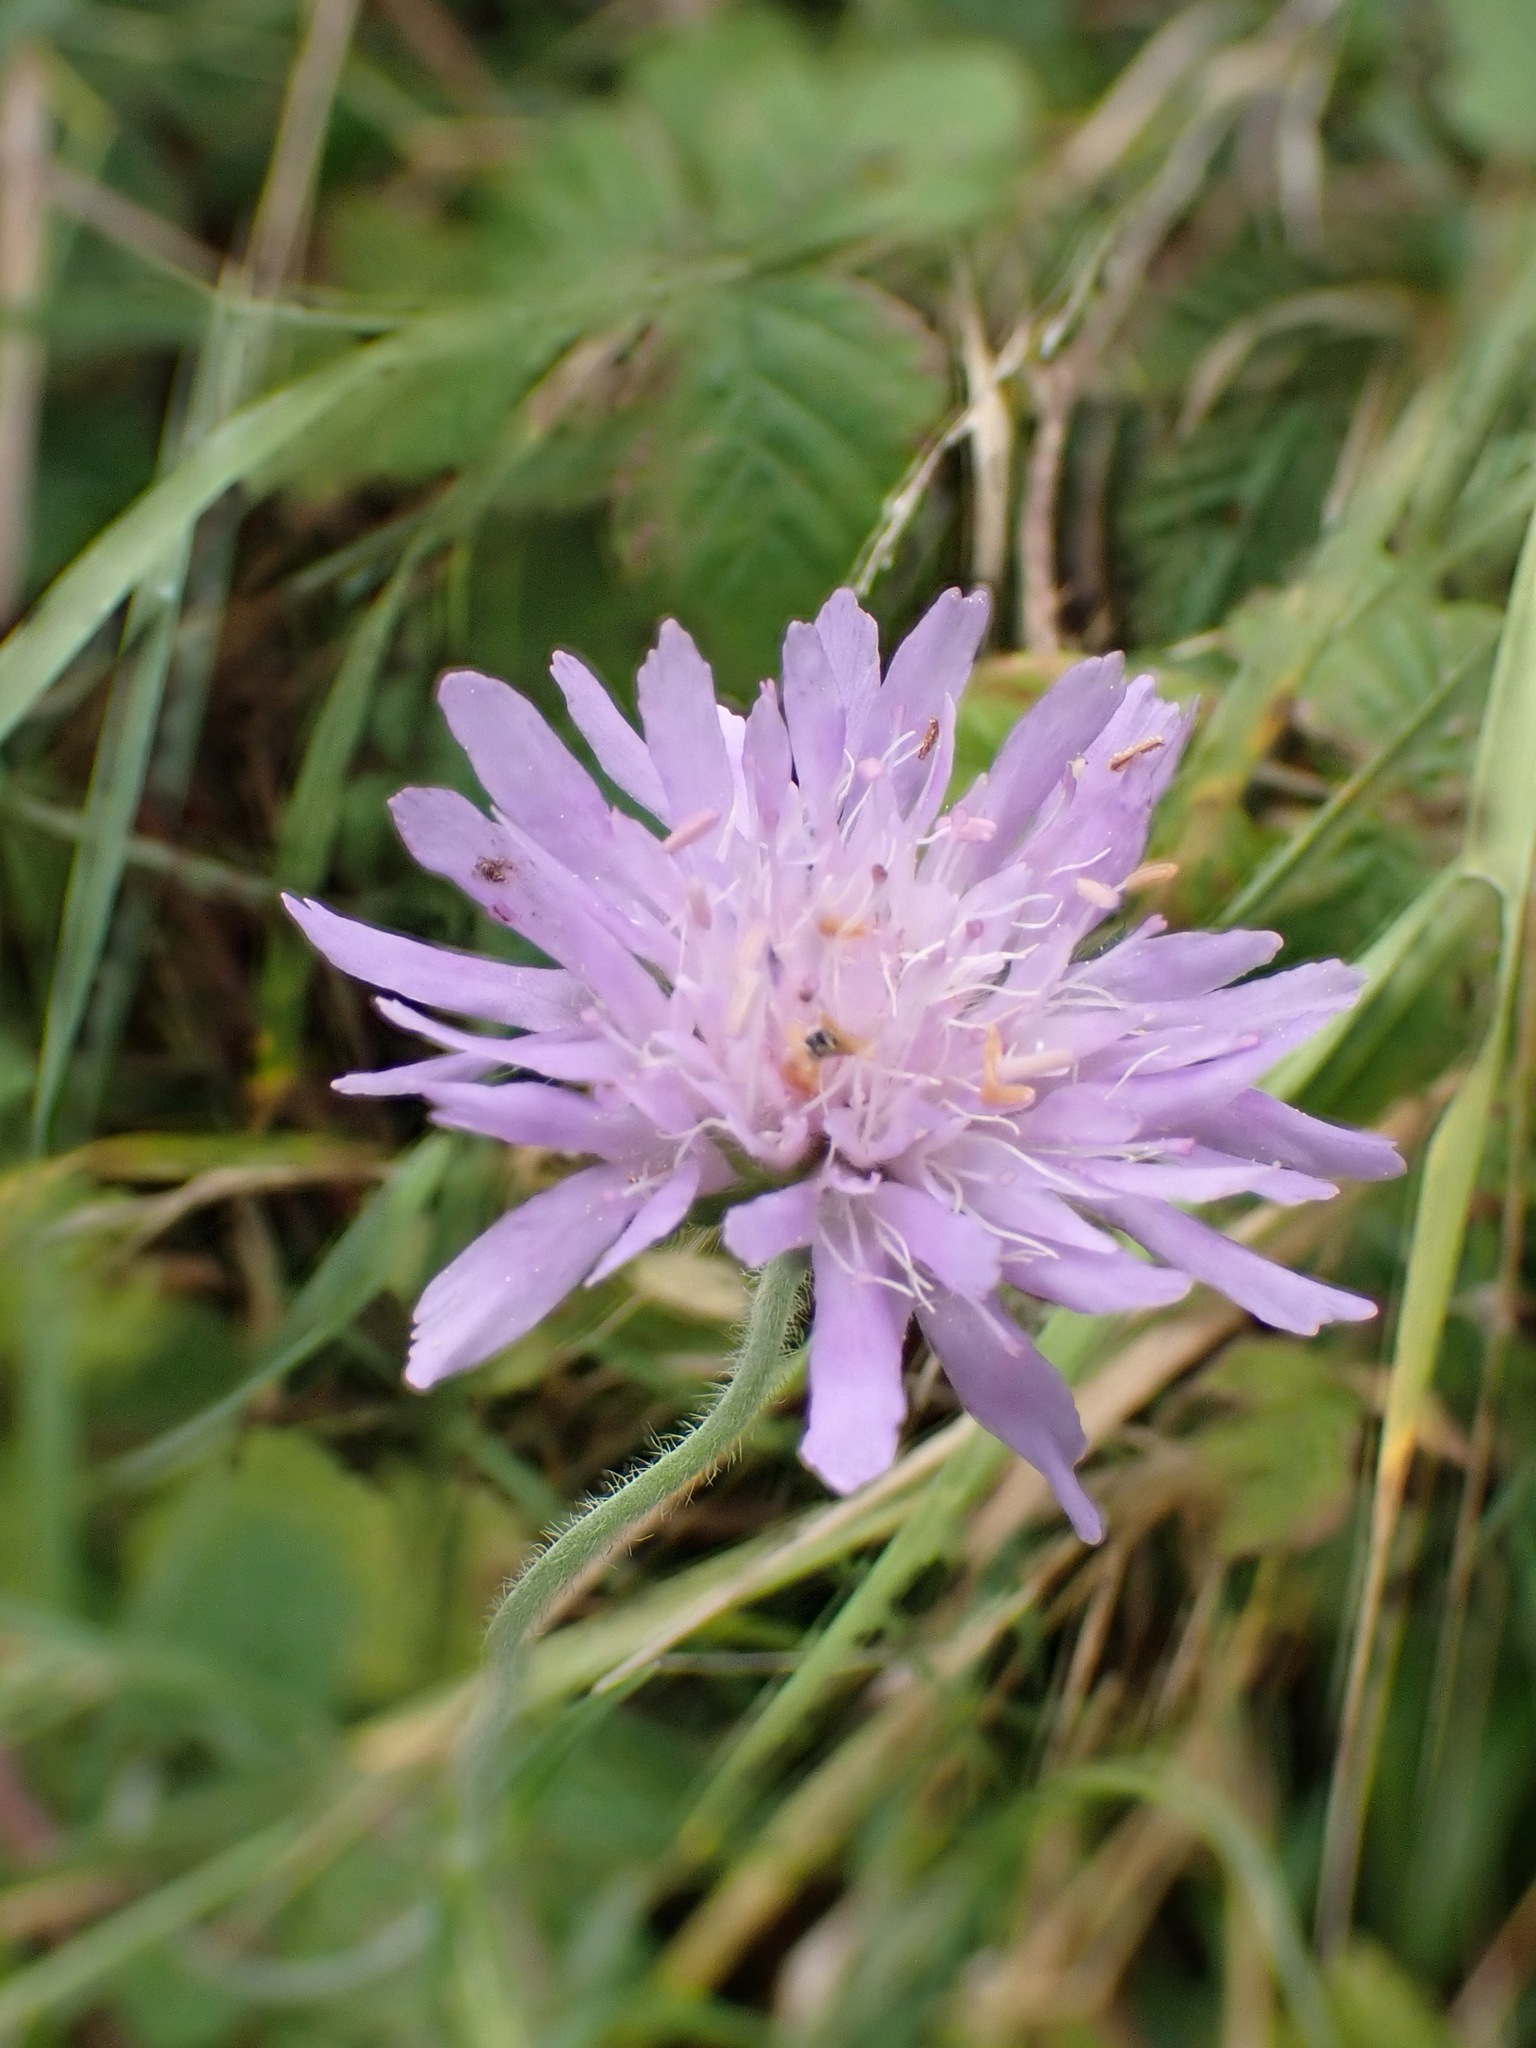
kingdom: Plantae
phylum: Tracheophyta
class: Magnoliopsida
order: Dipsacales
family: Caprifoliaceae
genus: Knautia
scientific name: Knautia arvensis
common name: Field scabiosa
